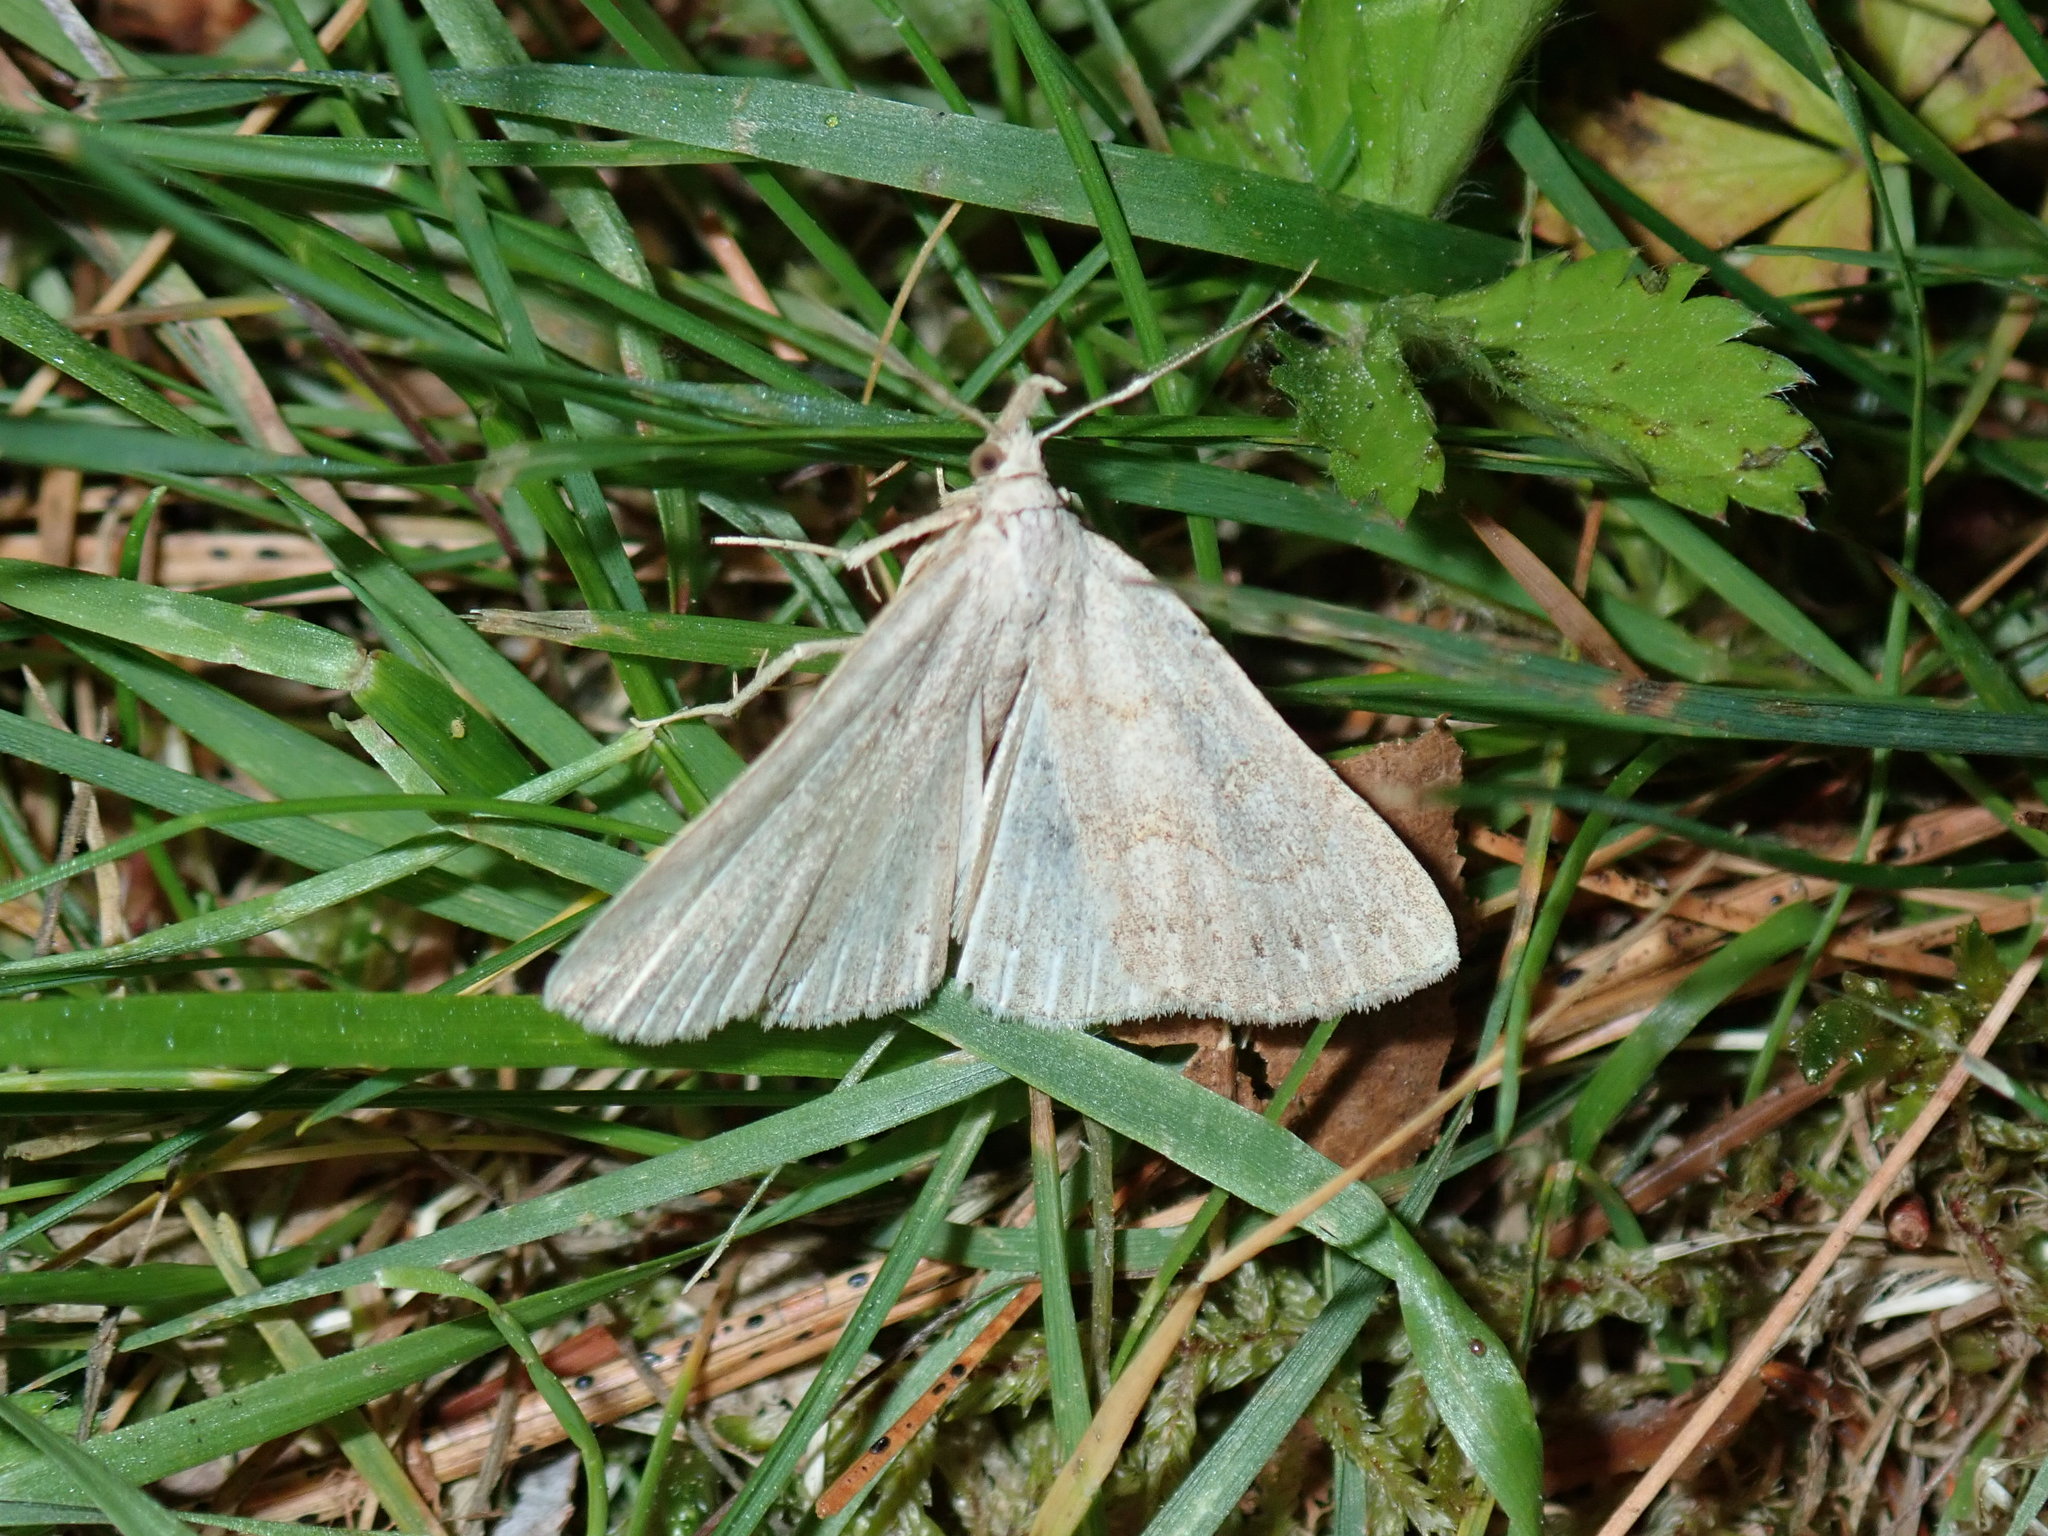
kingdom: Animalia
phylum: Arthropoda
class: Insecta
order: Lepidoptera
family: Erebidae
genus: Macrochilo
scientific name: Macrochilo morbidalis
